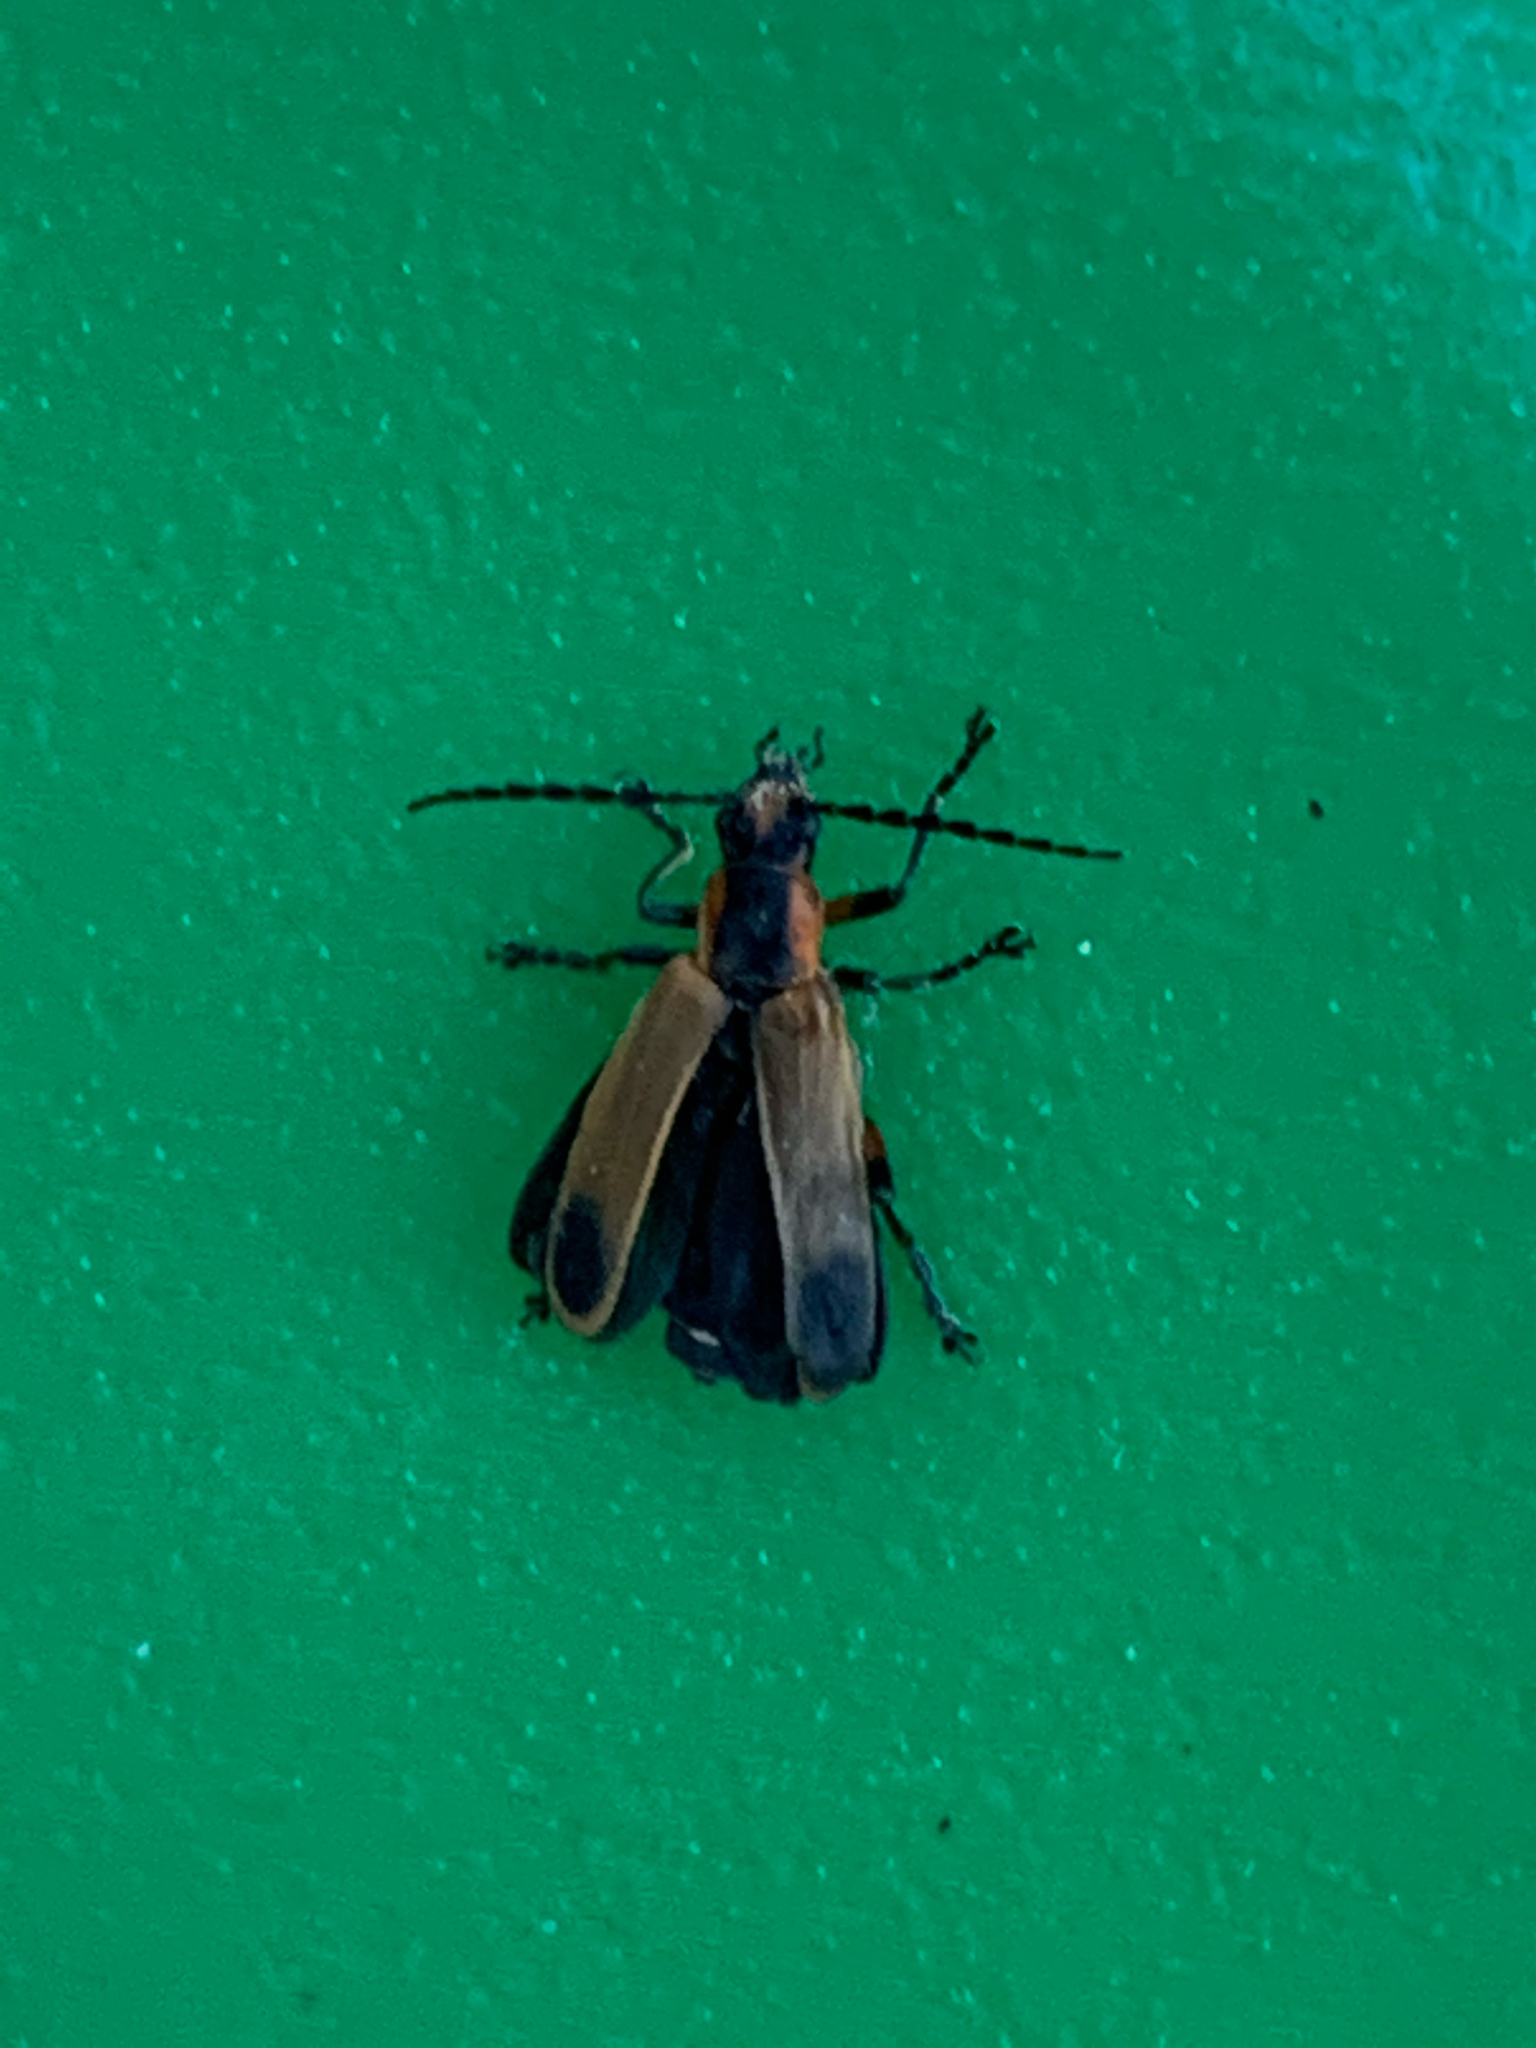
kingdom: Animalia
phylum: Arthropoda
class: Insecta
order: Coleoptera
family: Cantharidae
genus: Chauliognathus
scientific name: Chauliognathus marginatus
